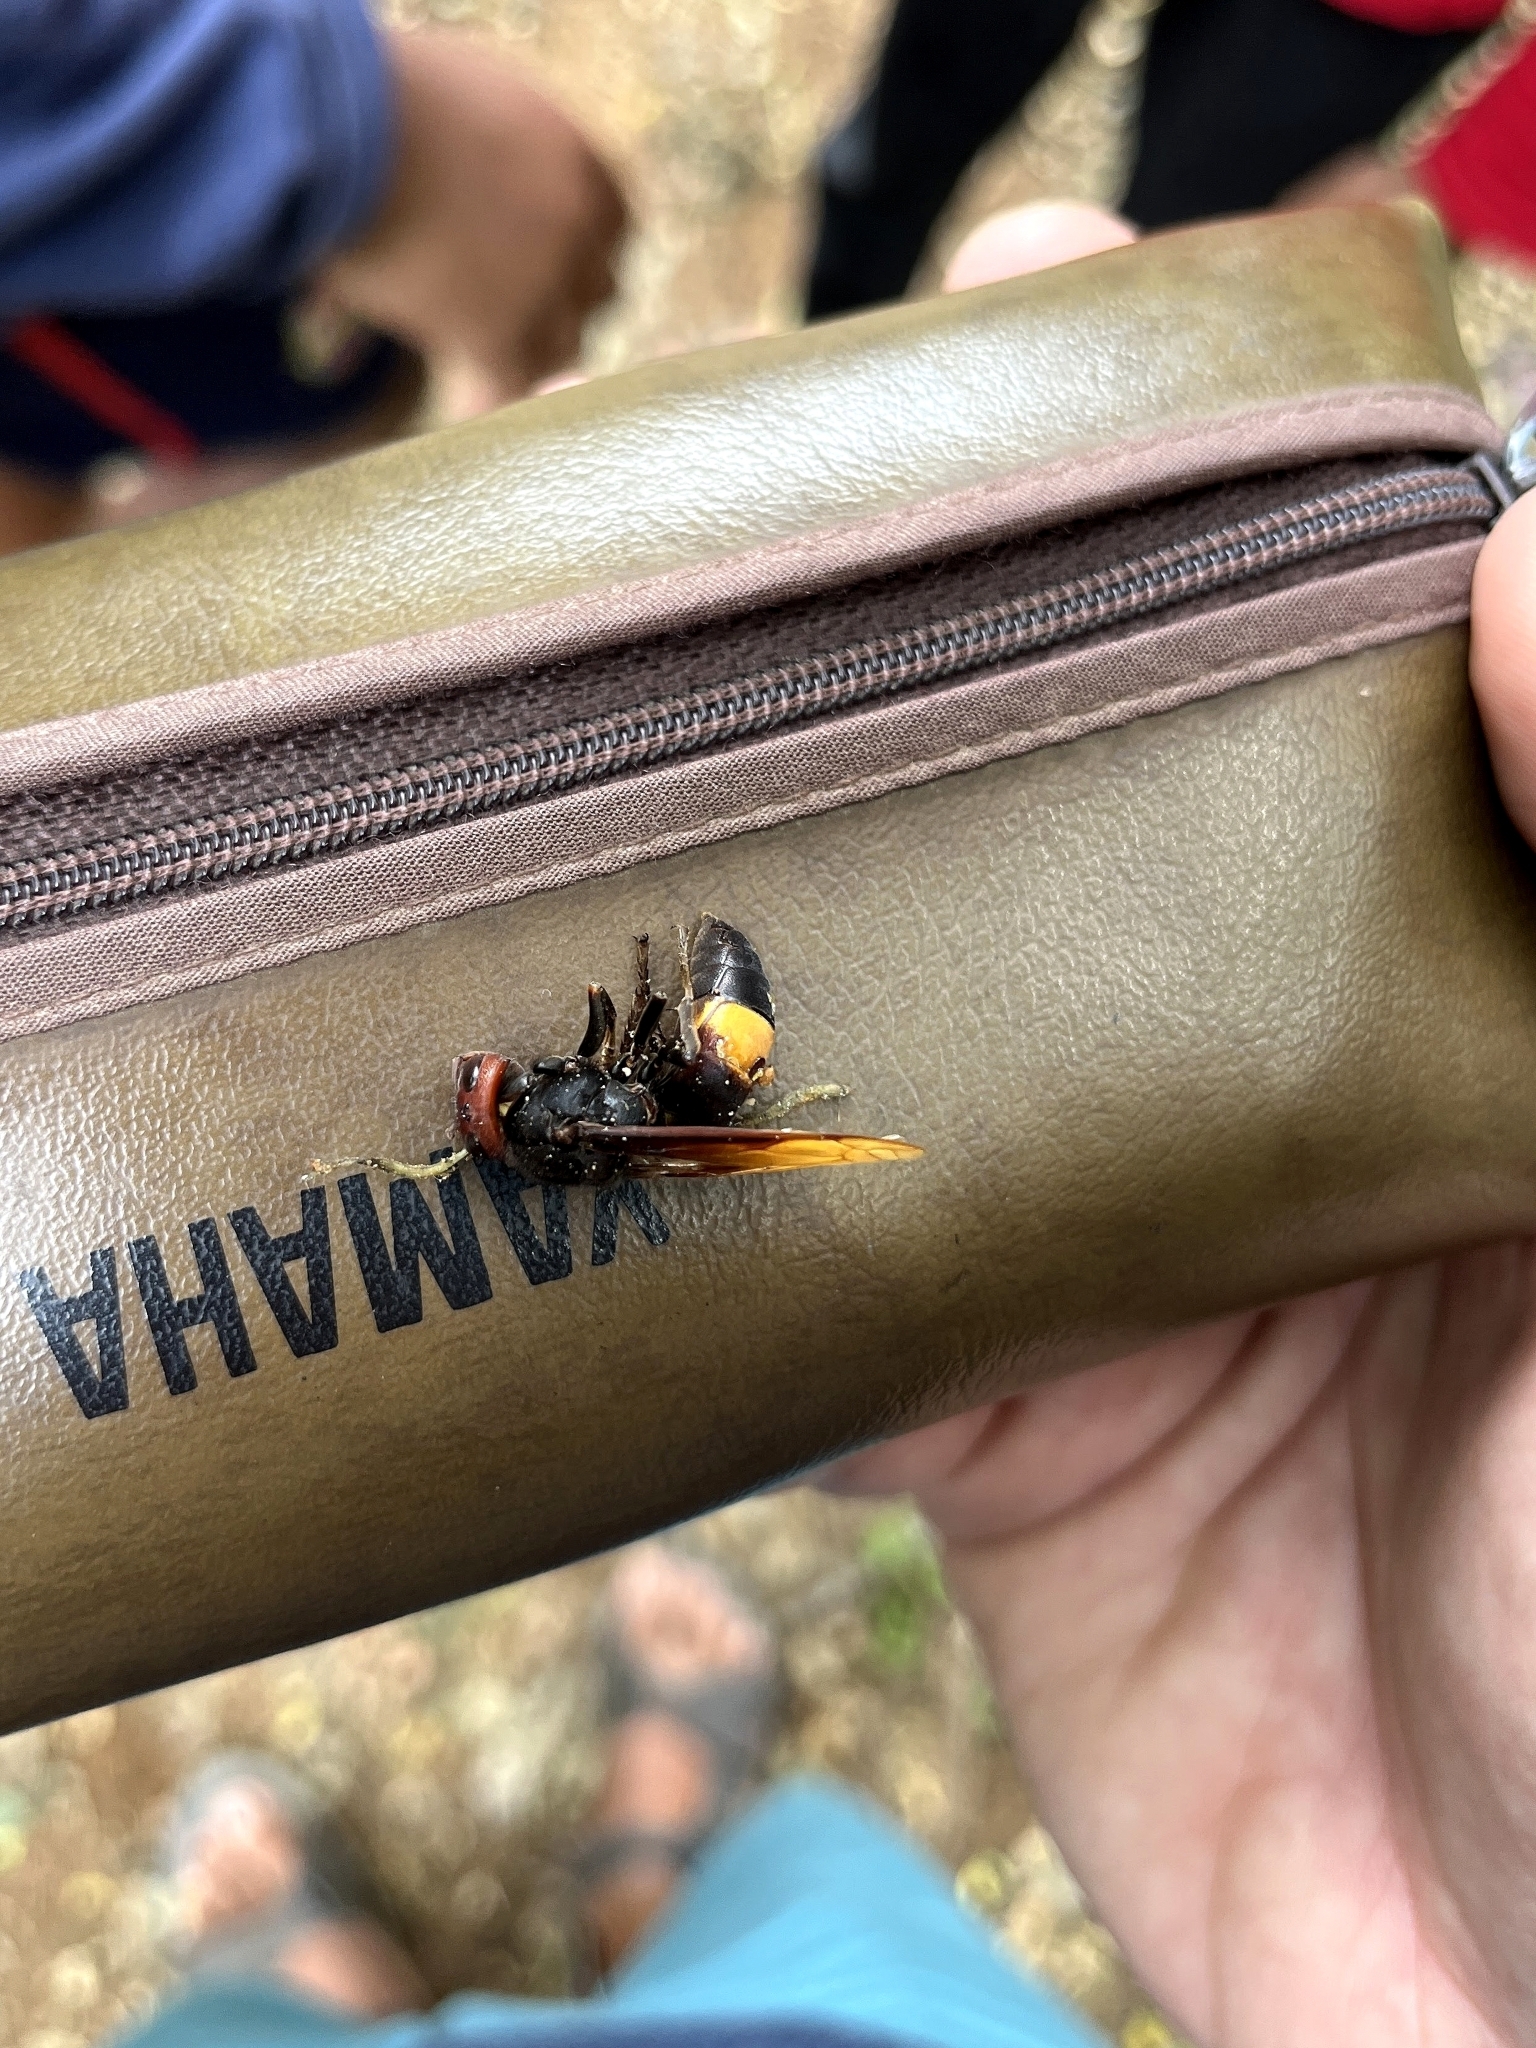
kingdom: Animalia
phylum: Arthropoda
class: Insecta
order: Hymenoptera
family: Vespidae
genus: Vespa
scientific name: Vespa tropica
